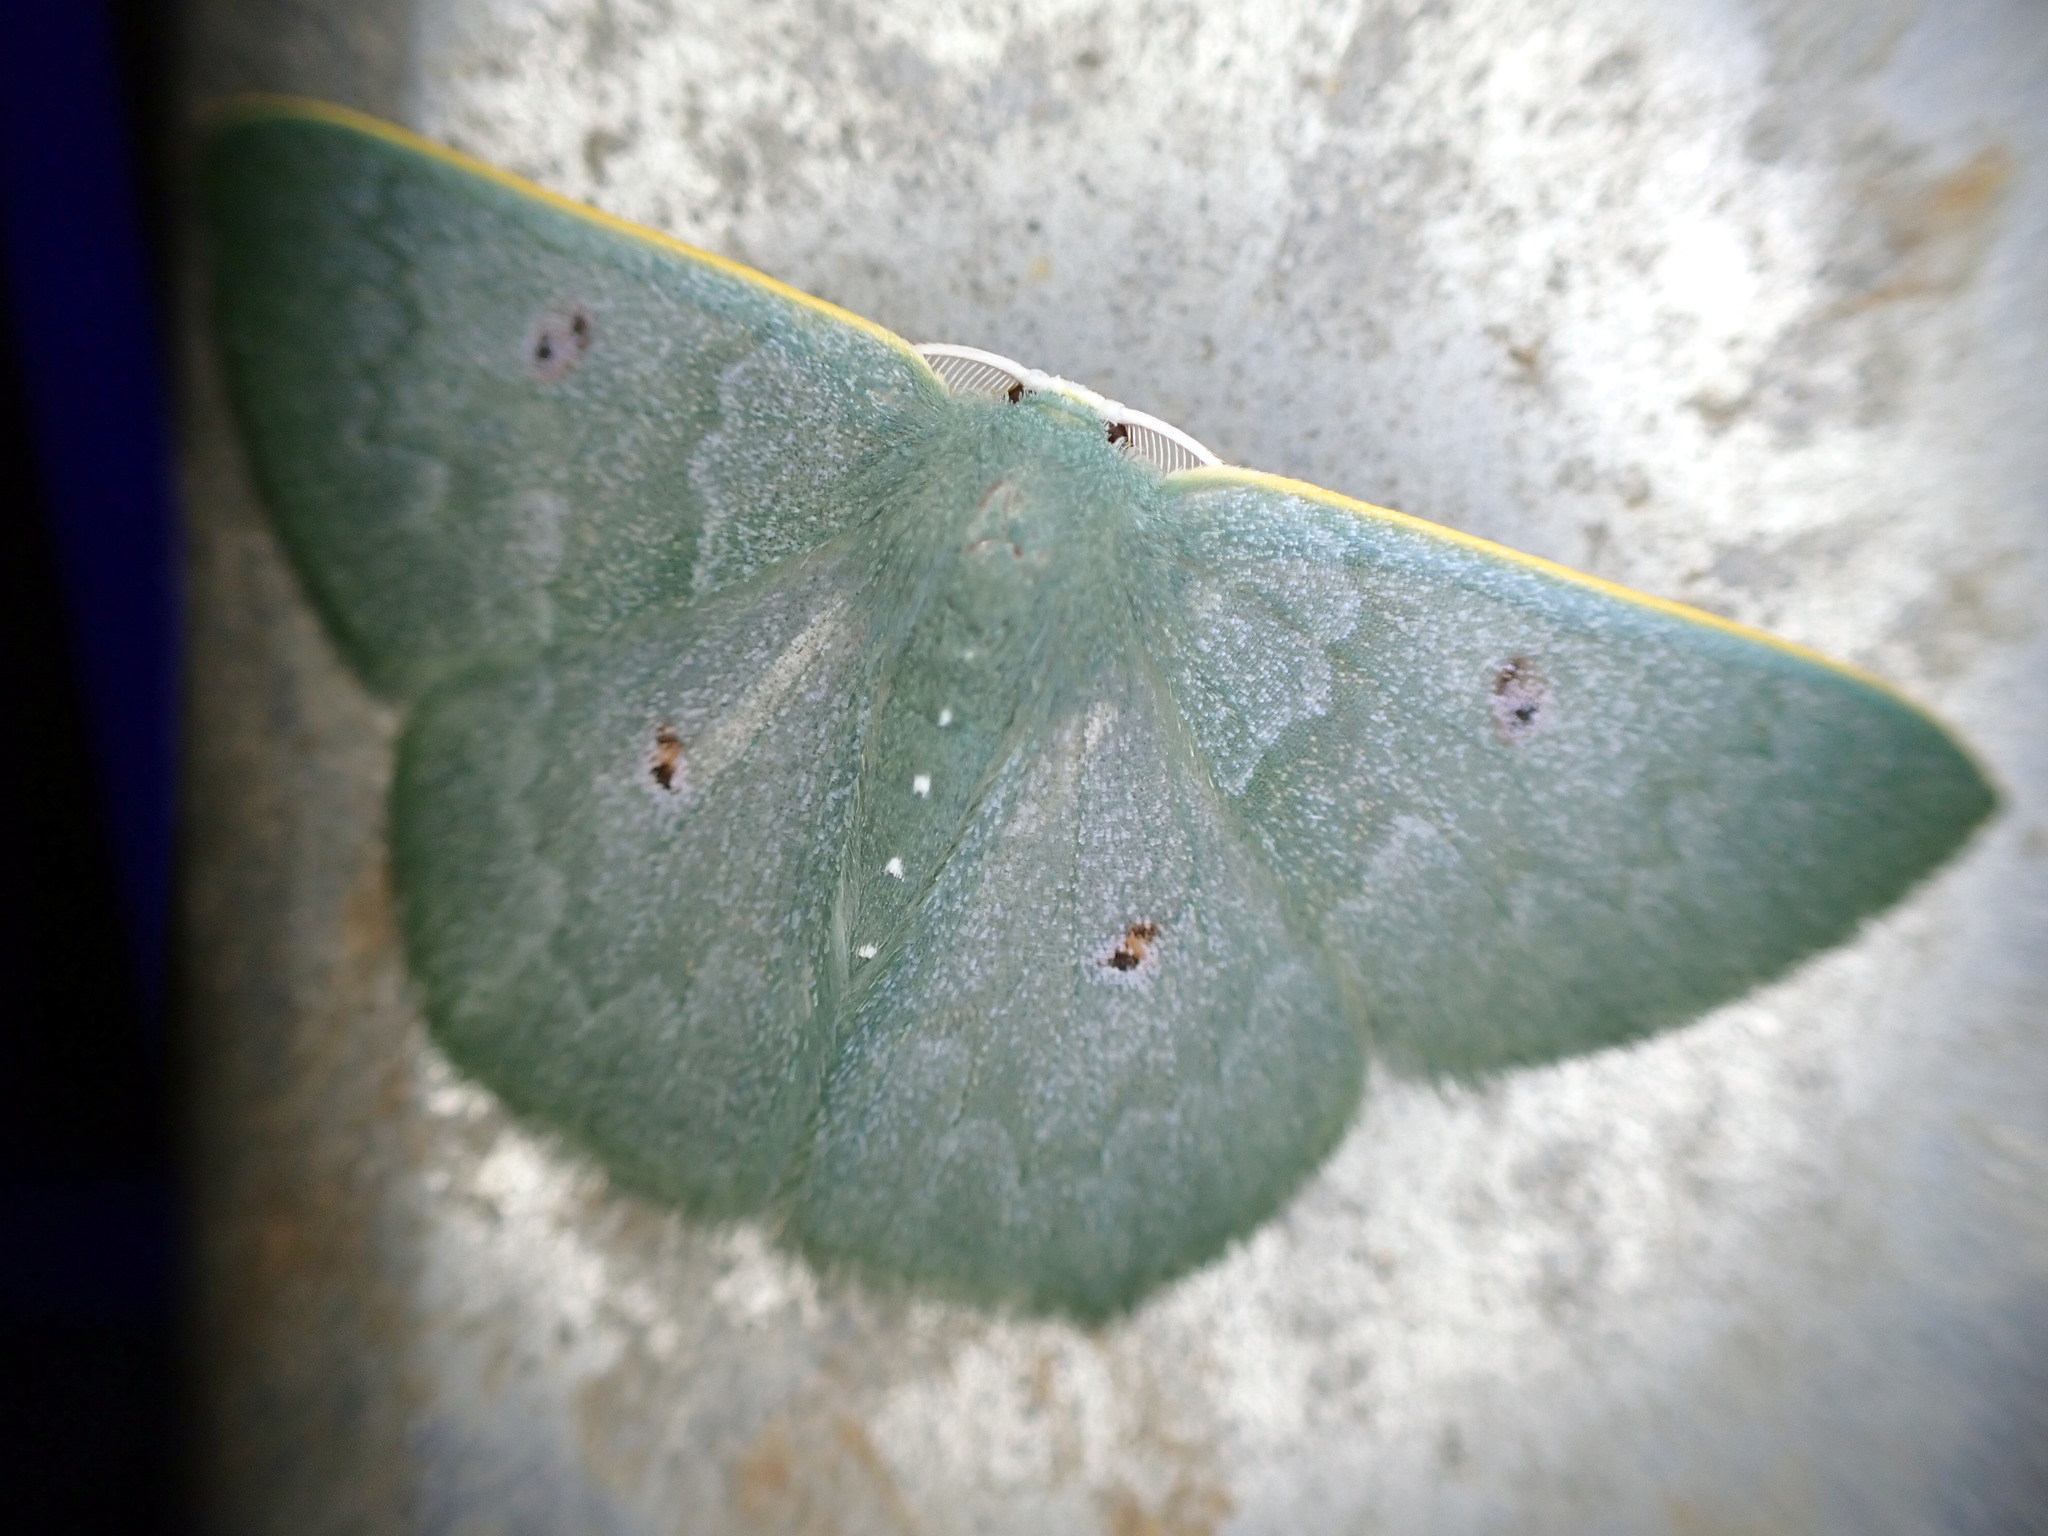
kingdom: Animalia
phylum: Arthropoda
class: Insecta
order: Lepidoptera
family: Geometridae
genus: Prasinocyma
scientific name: Prasinocyma caniola
